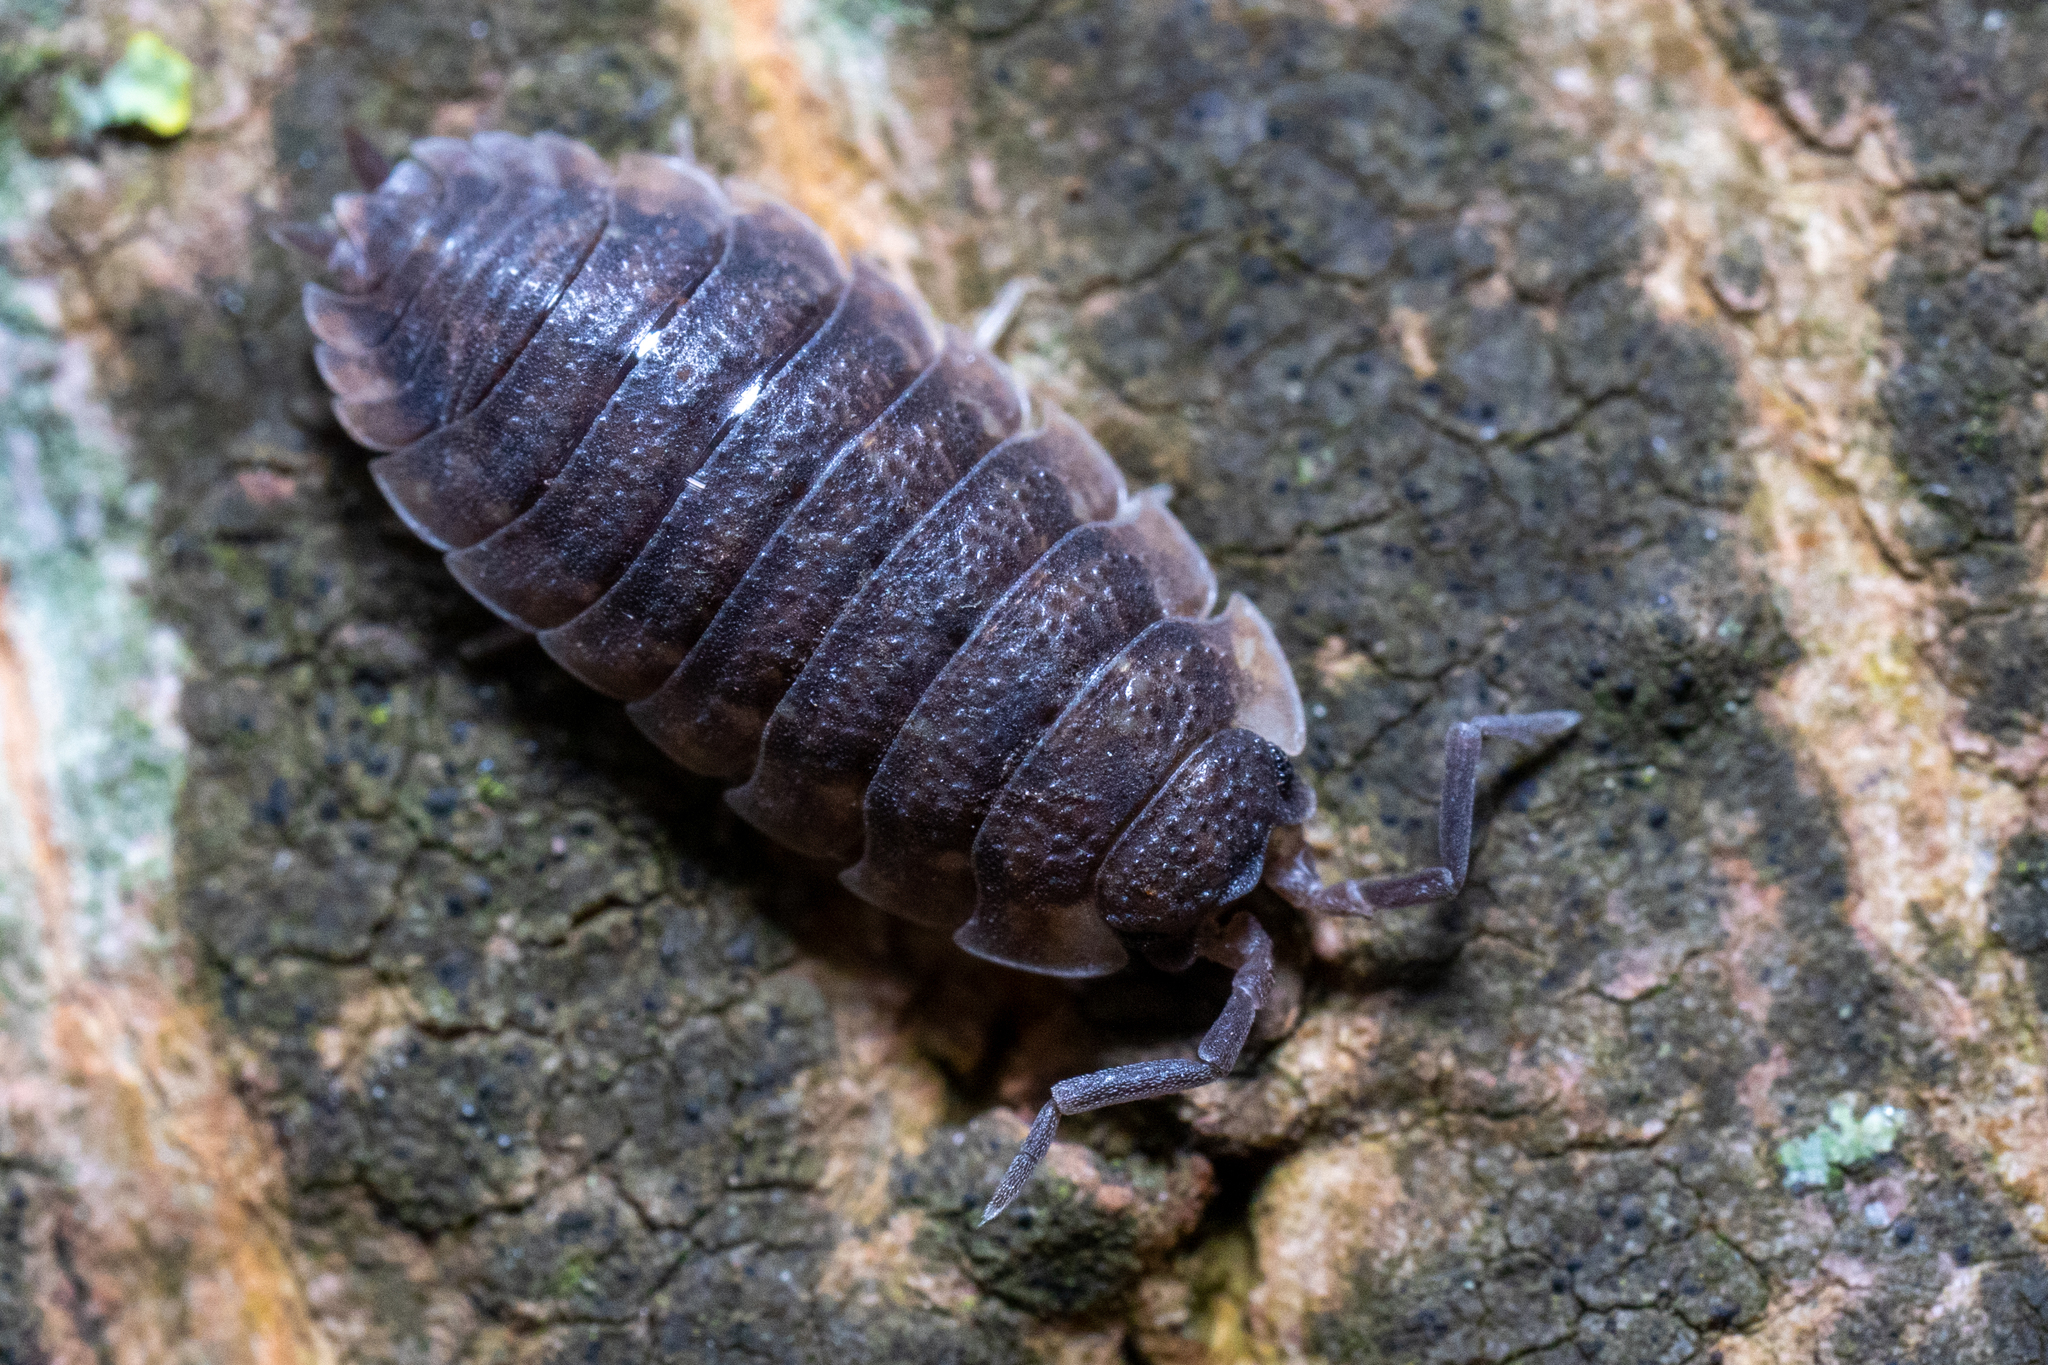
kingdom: Animalia
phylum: Arthropoda
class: Malacostraca
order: Isopoda
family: Porcellionidae
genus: Porcellio
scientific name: Porcellio scaber
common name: Common rough woodlouse
